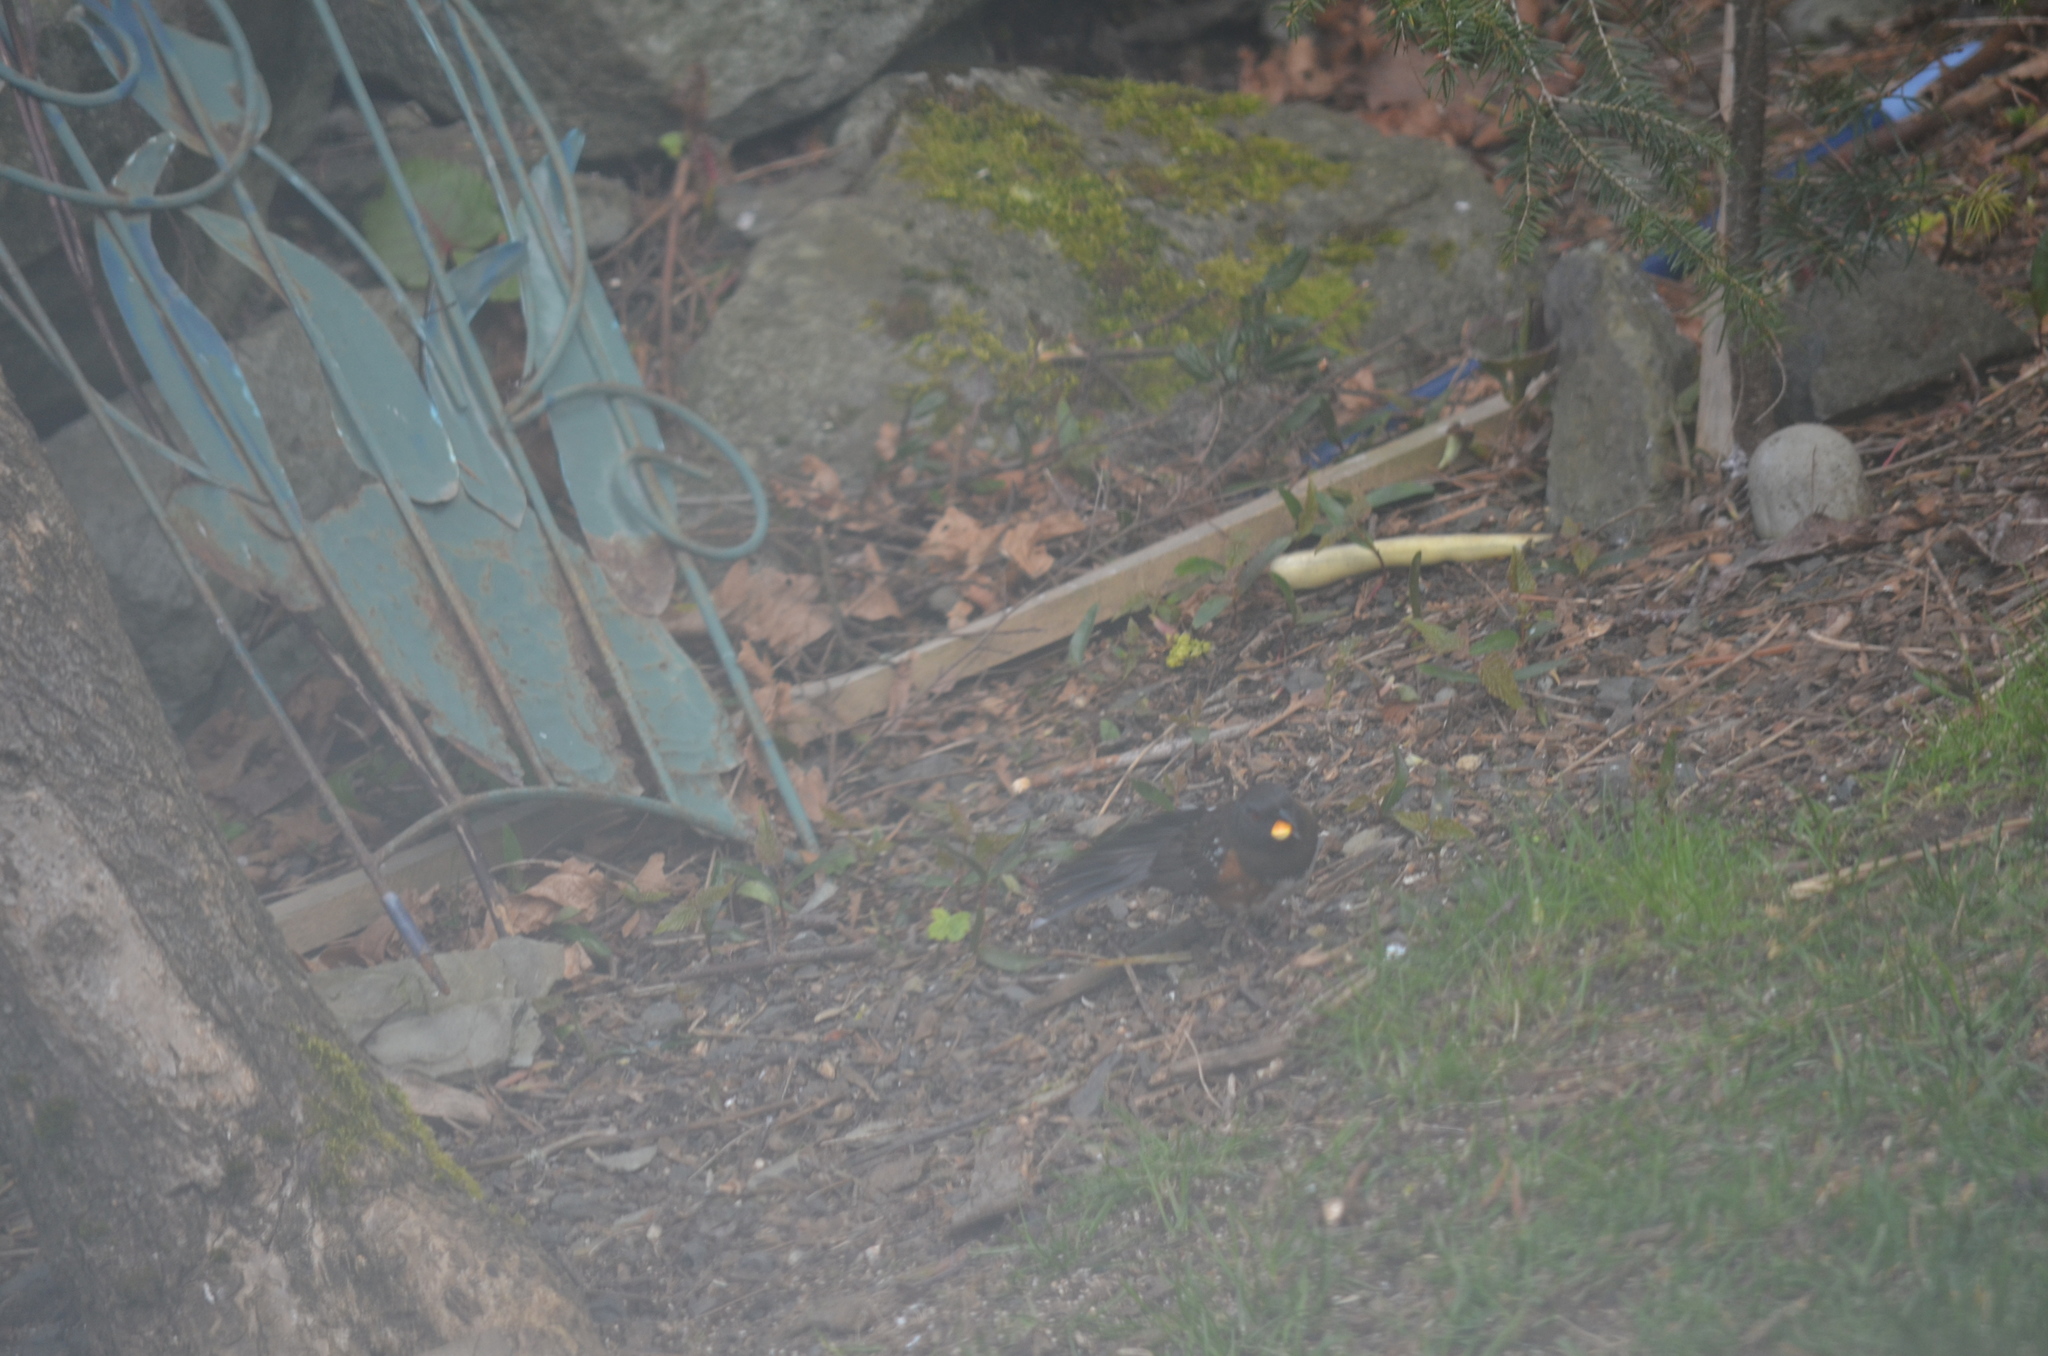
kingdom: Animalia
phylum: Chordata
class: Aves
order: Passeriformes
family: Passerellidae
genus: Pipilo
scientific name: Pipilo maculatus
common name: Spotted towhee
